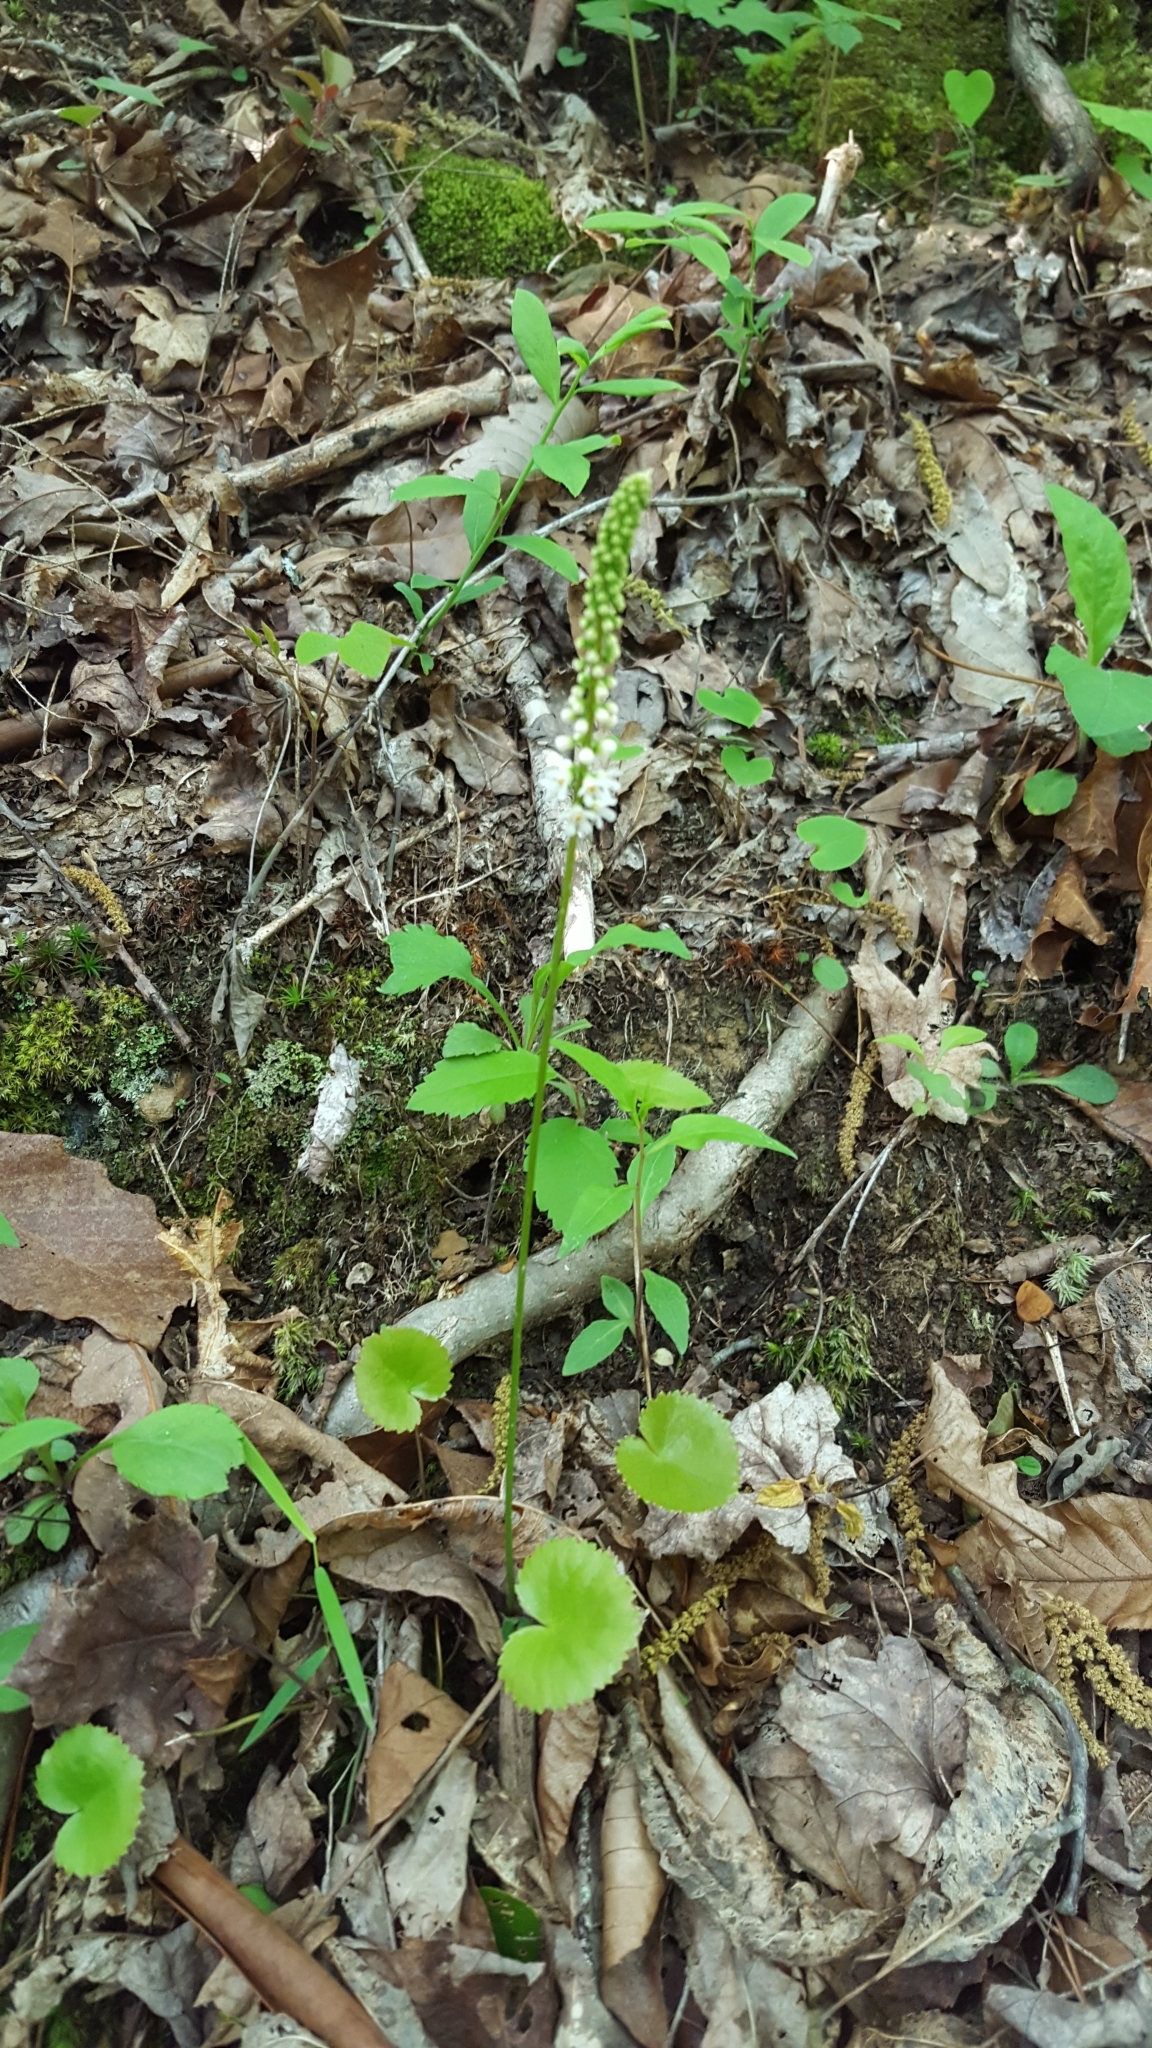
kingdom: Plantae
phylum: Tracheophyta
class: Magnoliopsida
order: Ericales
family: Diapensiaceae
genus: Galax
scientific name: Galax urceolata
